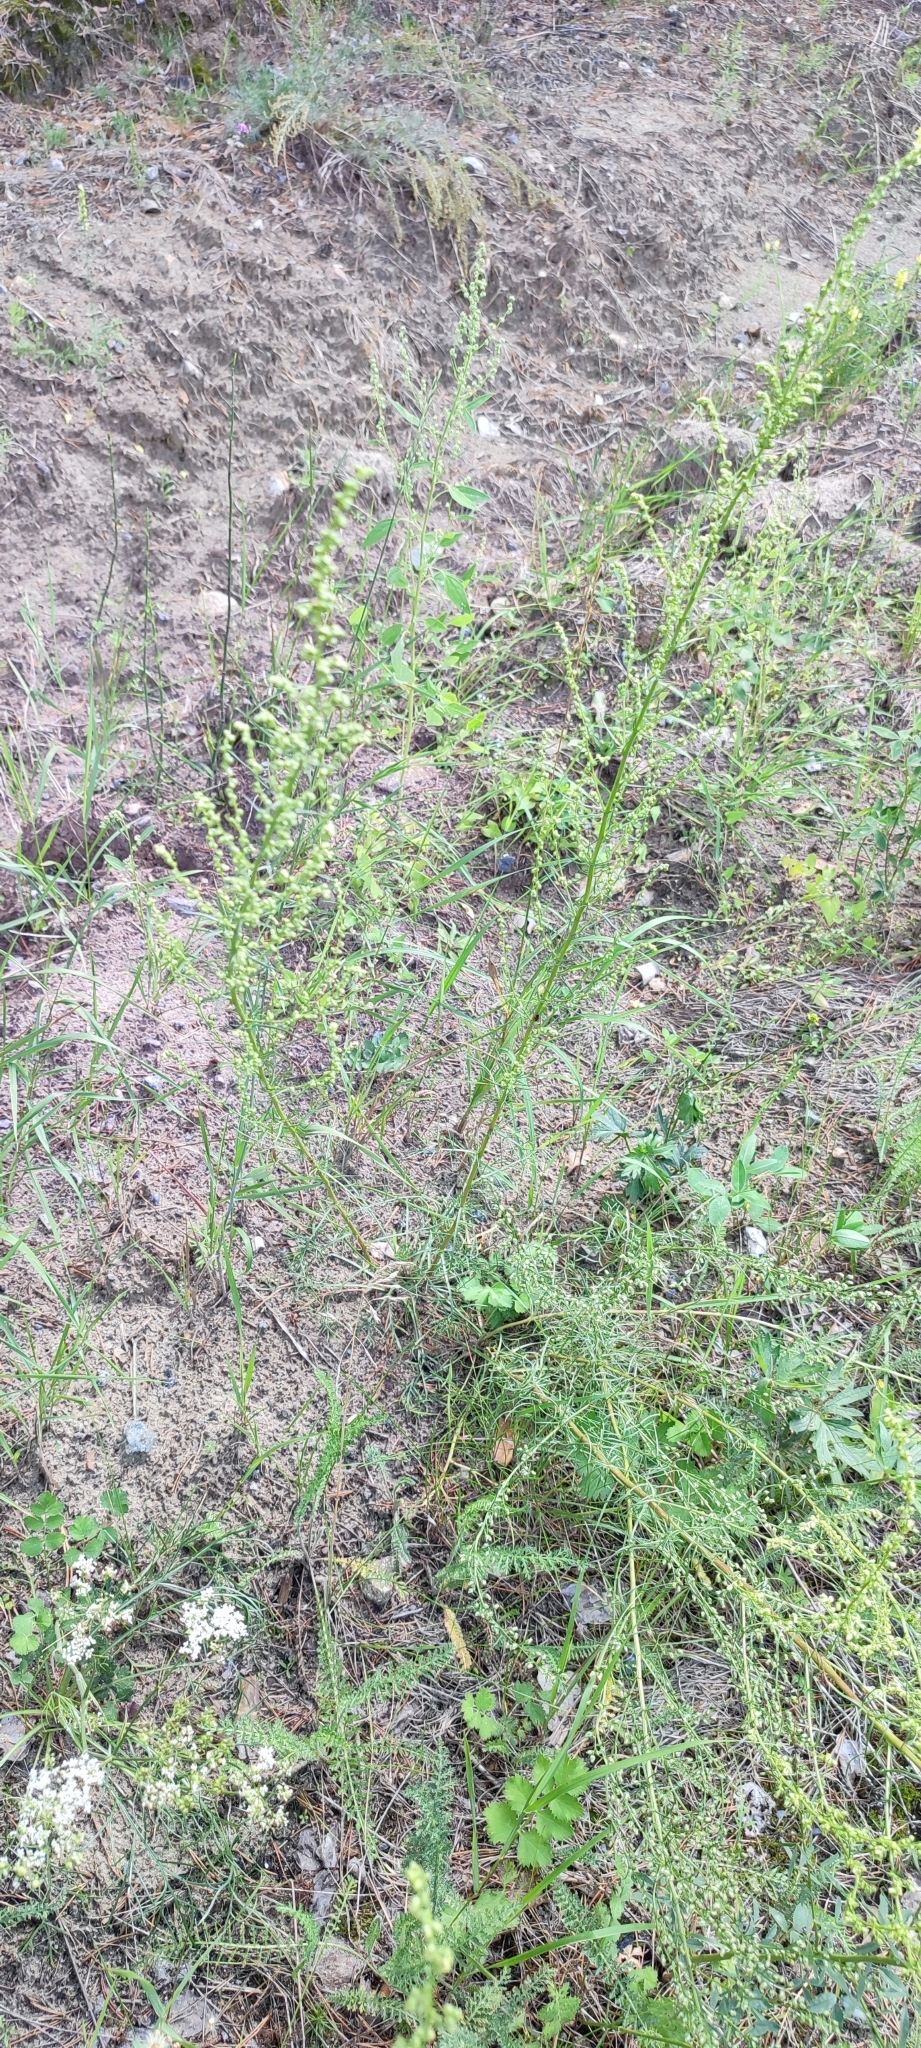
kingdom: Plantae
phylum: Tracheophyta
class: Magnoliopsida
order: Asterales
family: Asteraceae
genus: Artemisia
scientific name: Artemisia campestris
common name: Field wormwood
